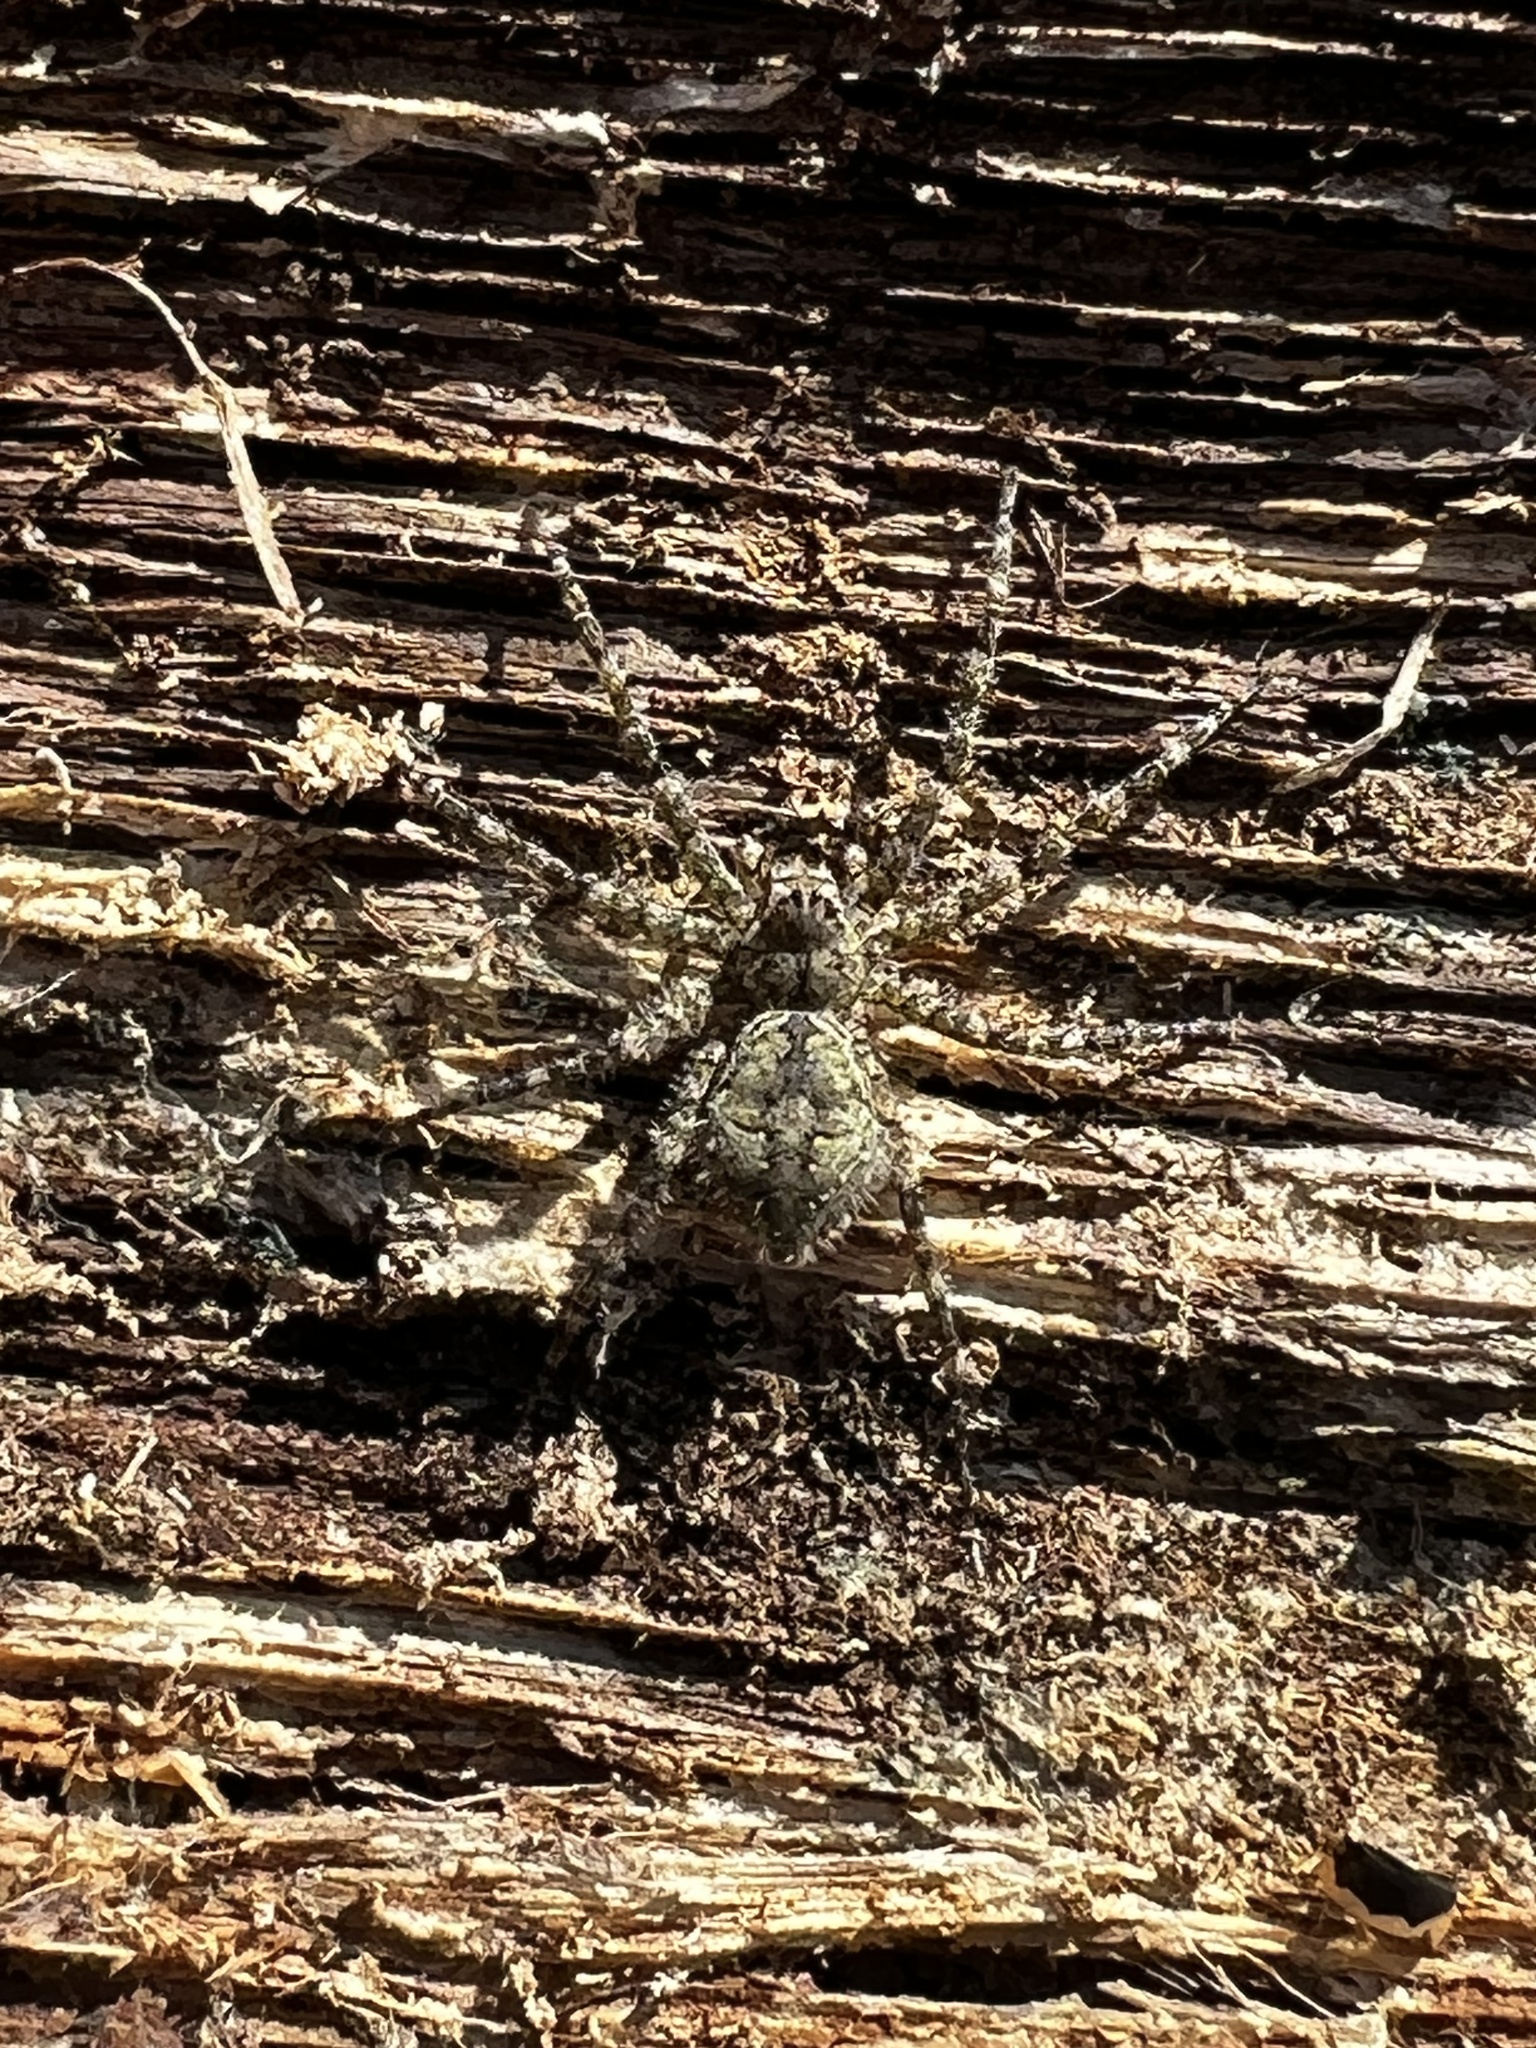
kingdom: Animalia
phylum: Arthropoda
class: Arachnida
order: Araneae
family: Pisauridae
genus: Dolomedes
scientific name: Dolomedes albineus
